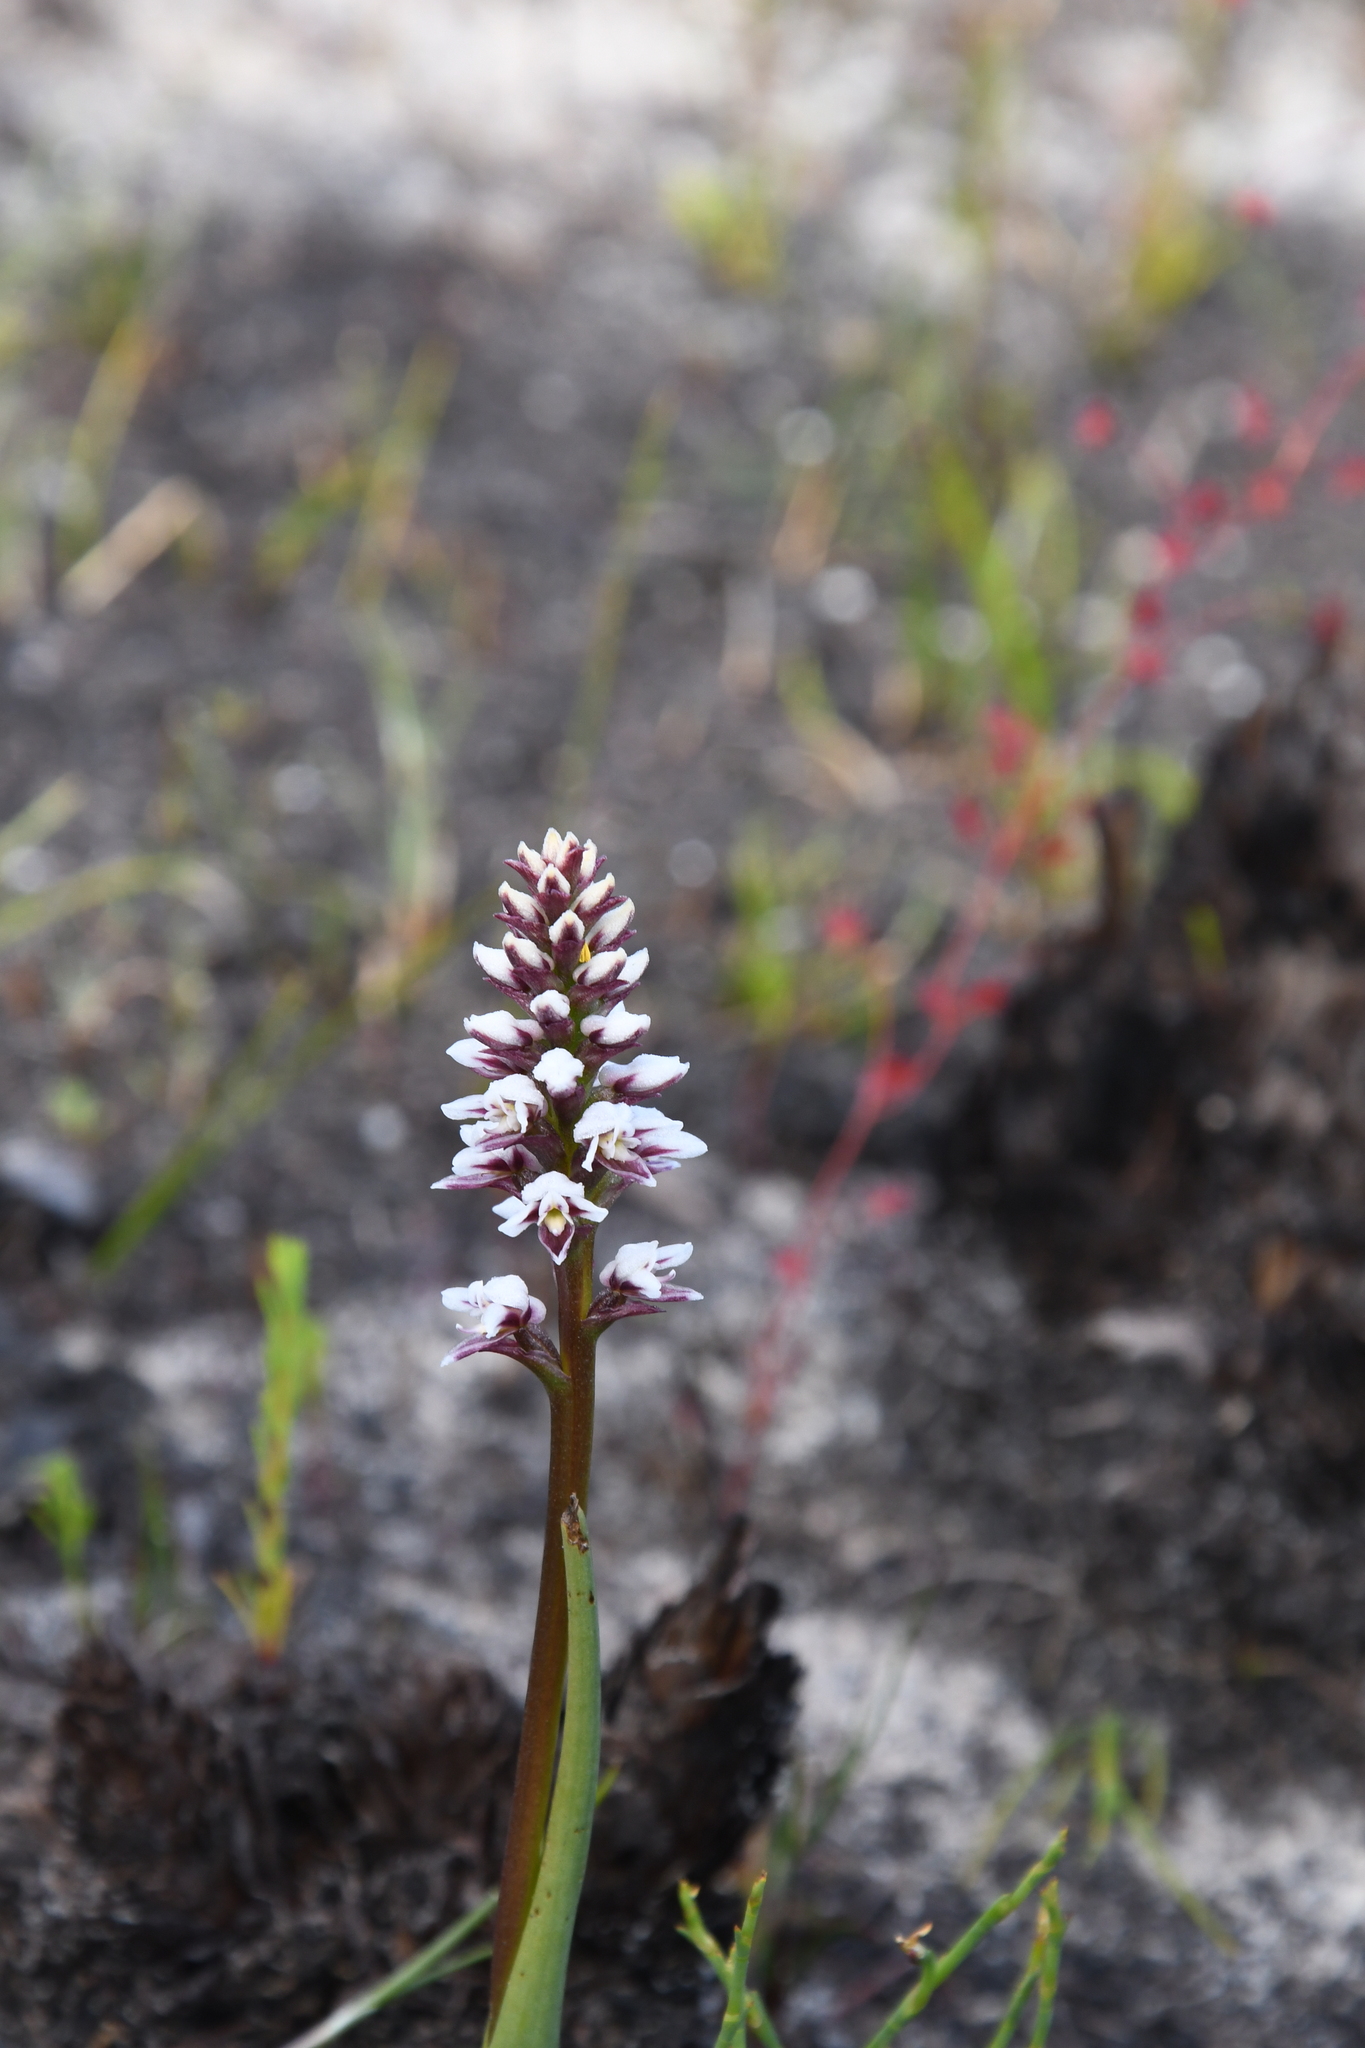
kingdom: Plantae
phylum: Tracheophyta
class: Liliopsida
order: Asparagales
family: Orchidaceae
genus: Prasophyllum
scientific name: Prasophyllum cucullatum
